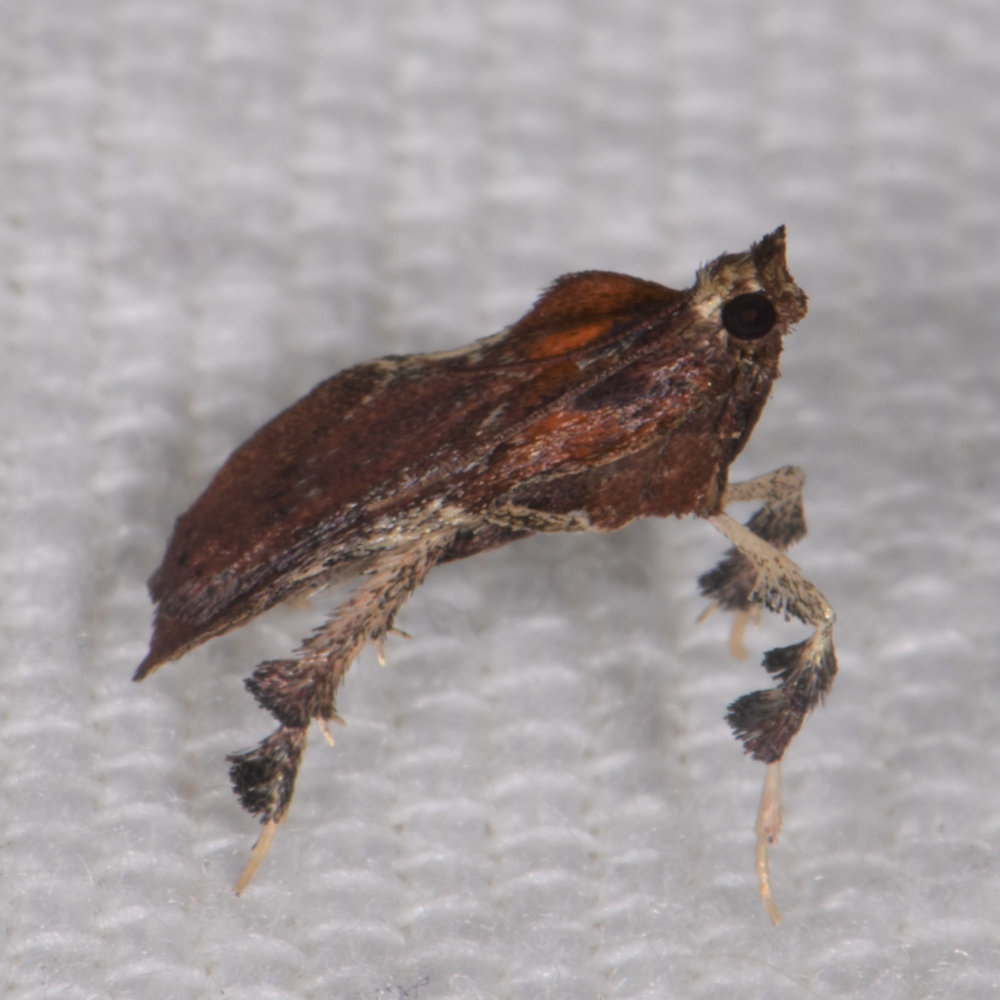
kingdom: Animalia
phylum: Arthropoda
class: Insecta
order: Lepidoptera
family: Pyralidae
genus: Galasa
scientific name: Galasa nigrinodis
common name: Boxwood leaftier moth
